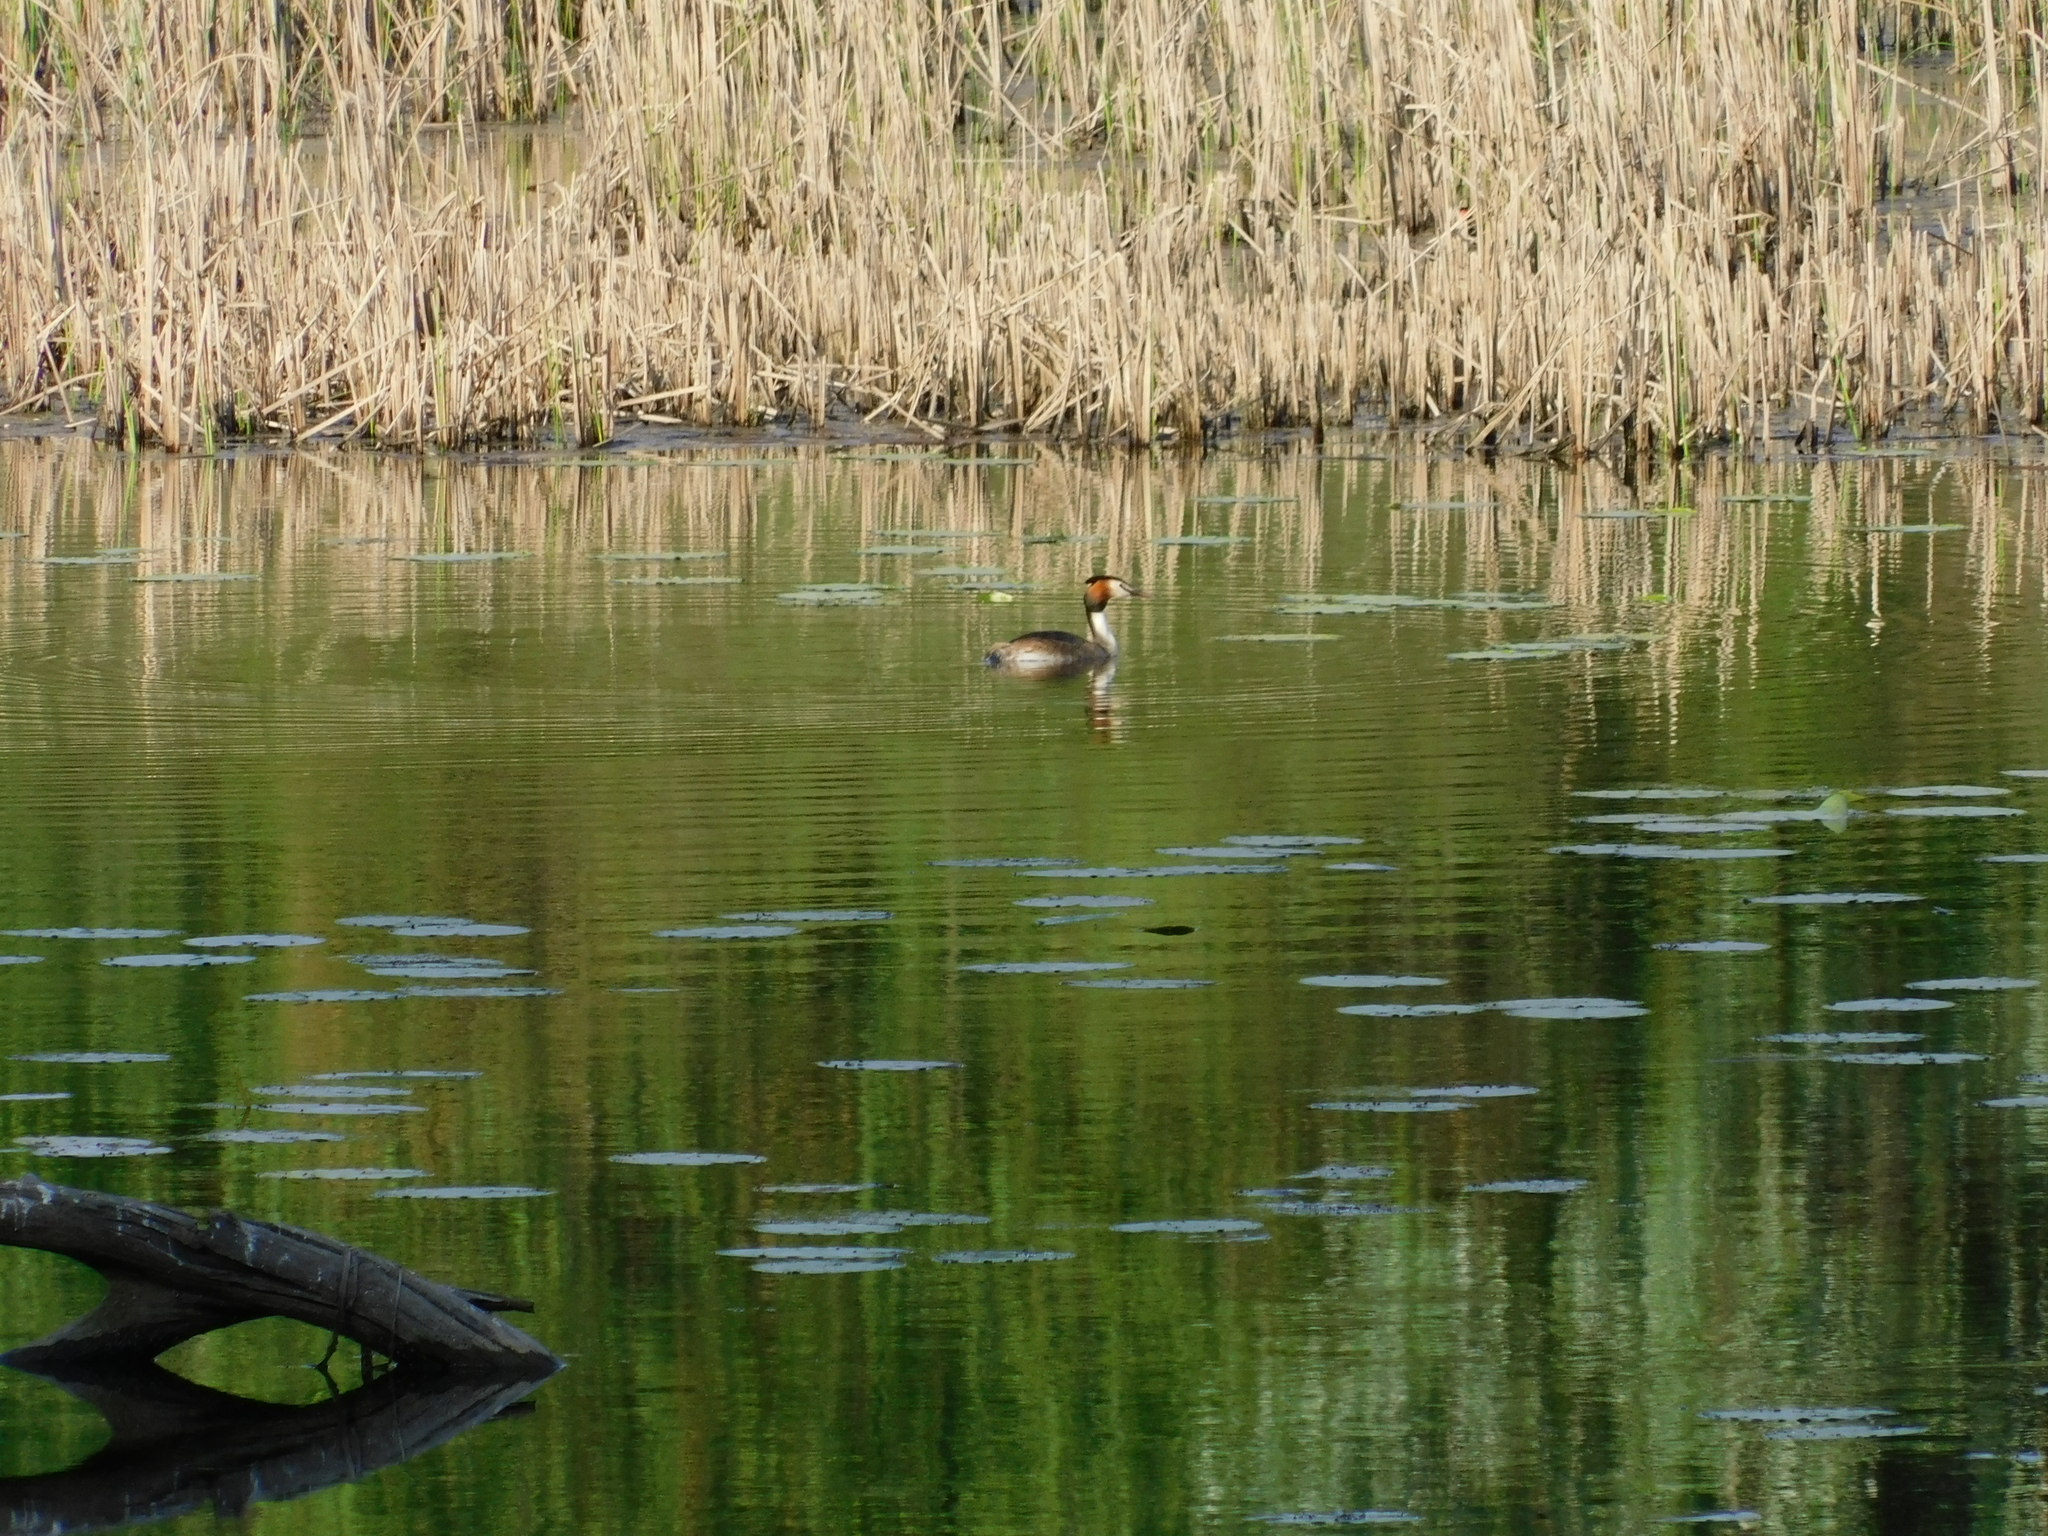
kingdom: Animalia
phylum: Chordata
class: Aves
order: Podicipediformes
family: Podicipedidae
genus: Podiceps
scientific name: Podiceps cristatus
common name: Great crested grebe
